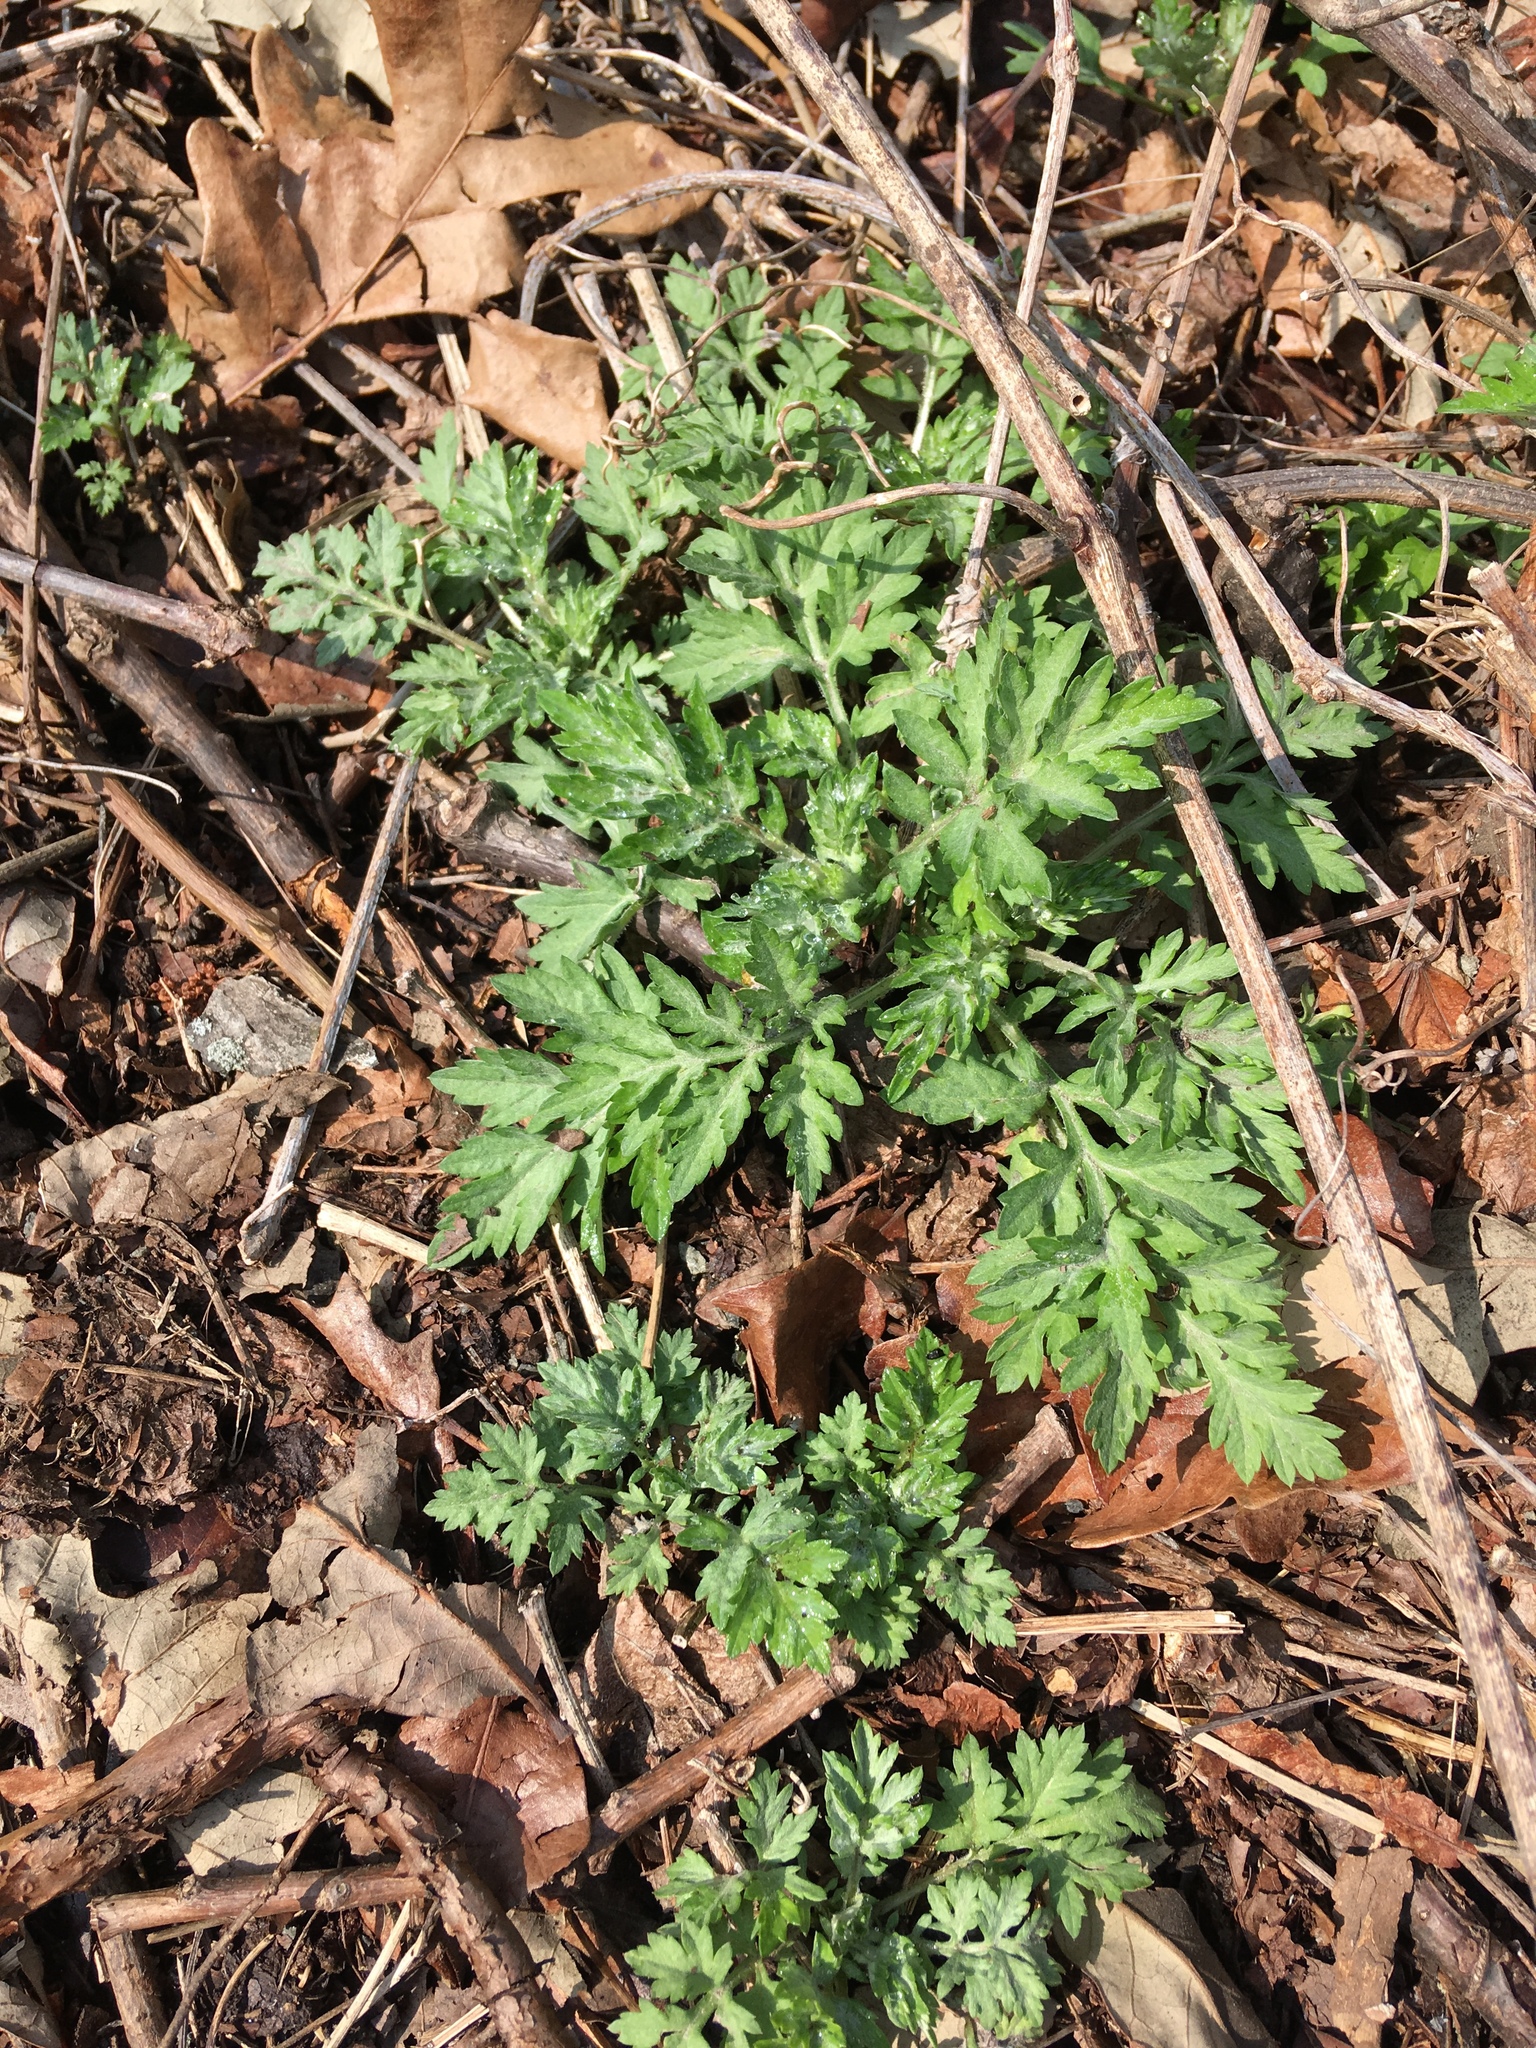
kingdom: Plantae
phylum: Tracheophyta
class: Magnoliopsida
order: Asterales
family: Asteraceae
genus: Artemisia
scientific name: Artemisia vulgaris
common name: Mugwort
